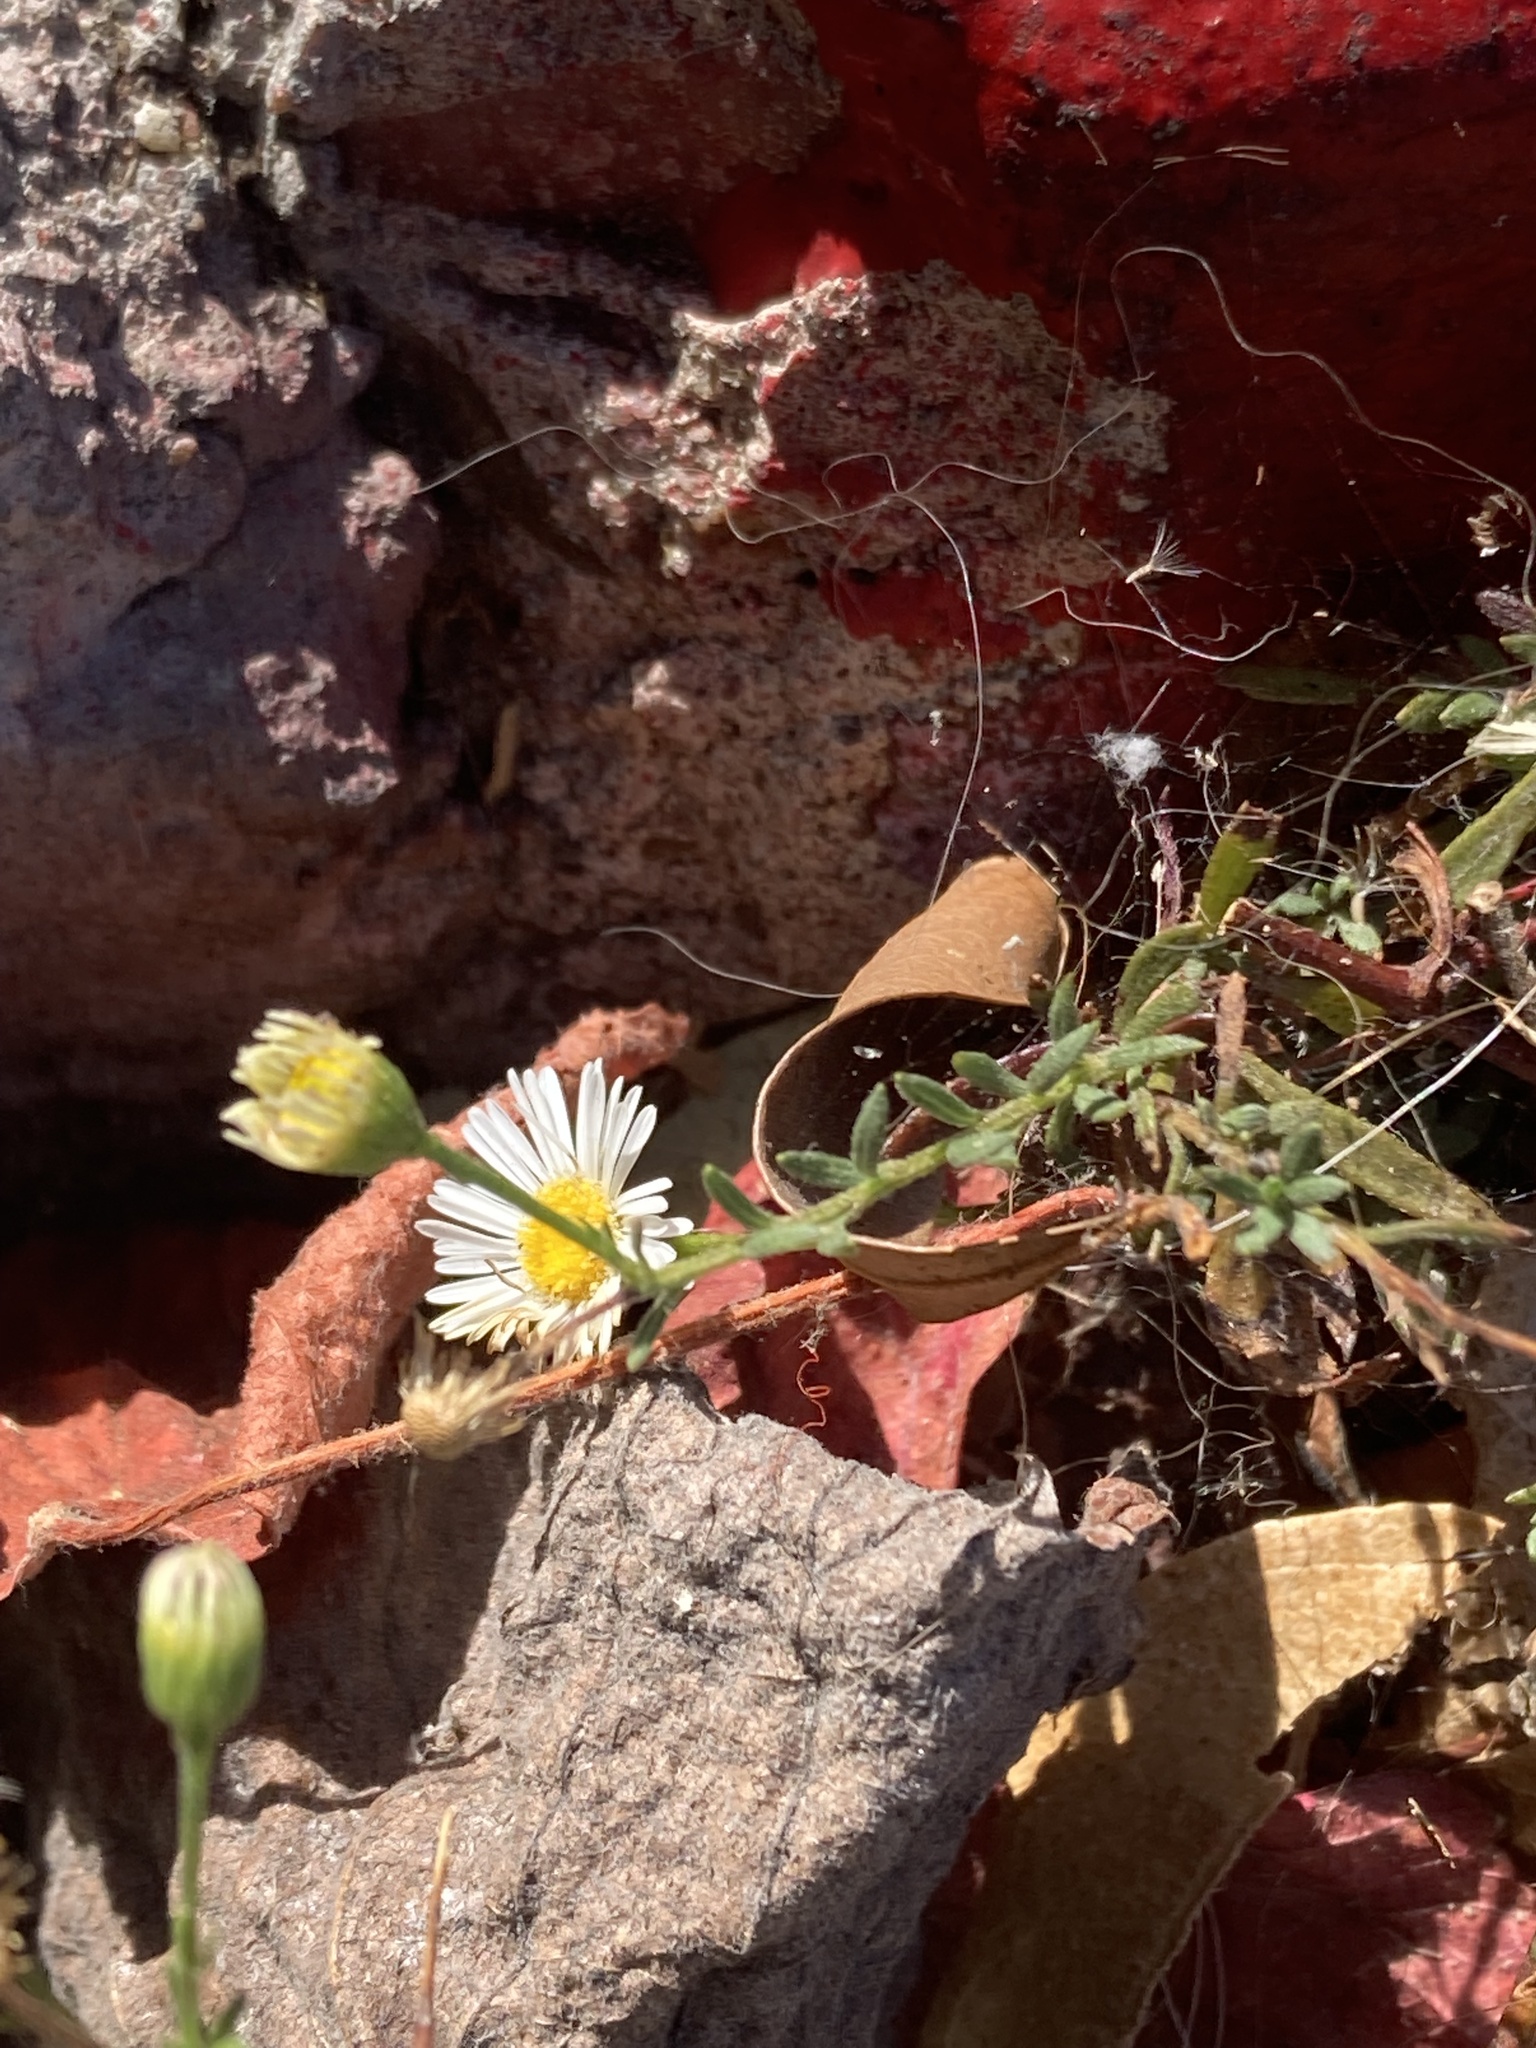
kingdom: Plantae
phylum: Tracheophyta
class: Magnoliopsida
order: Asterales
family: Asteraceae
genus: Erigeron
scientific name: Erigeron karvinskianus
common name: Mexican fleabane
